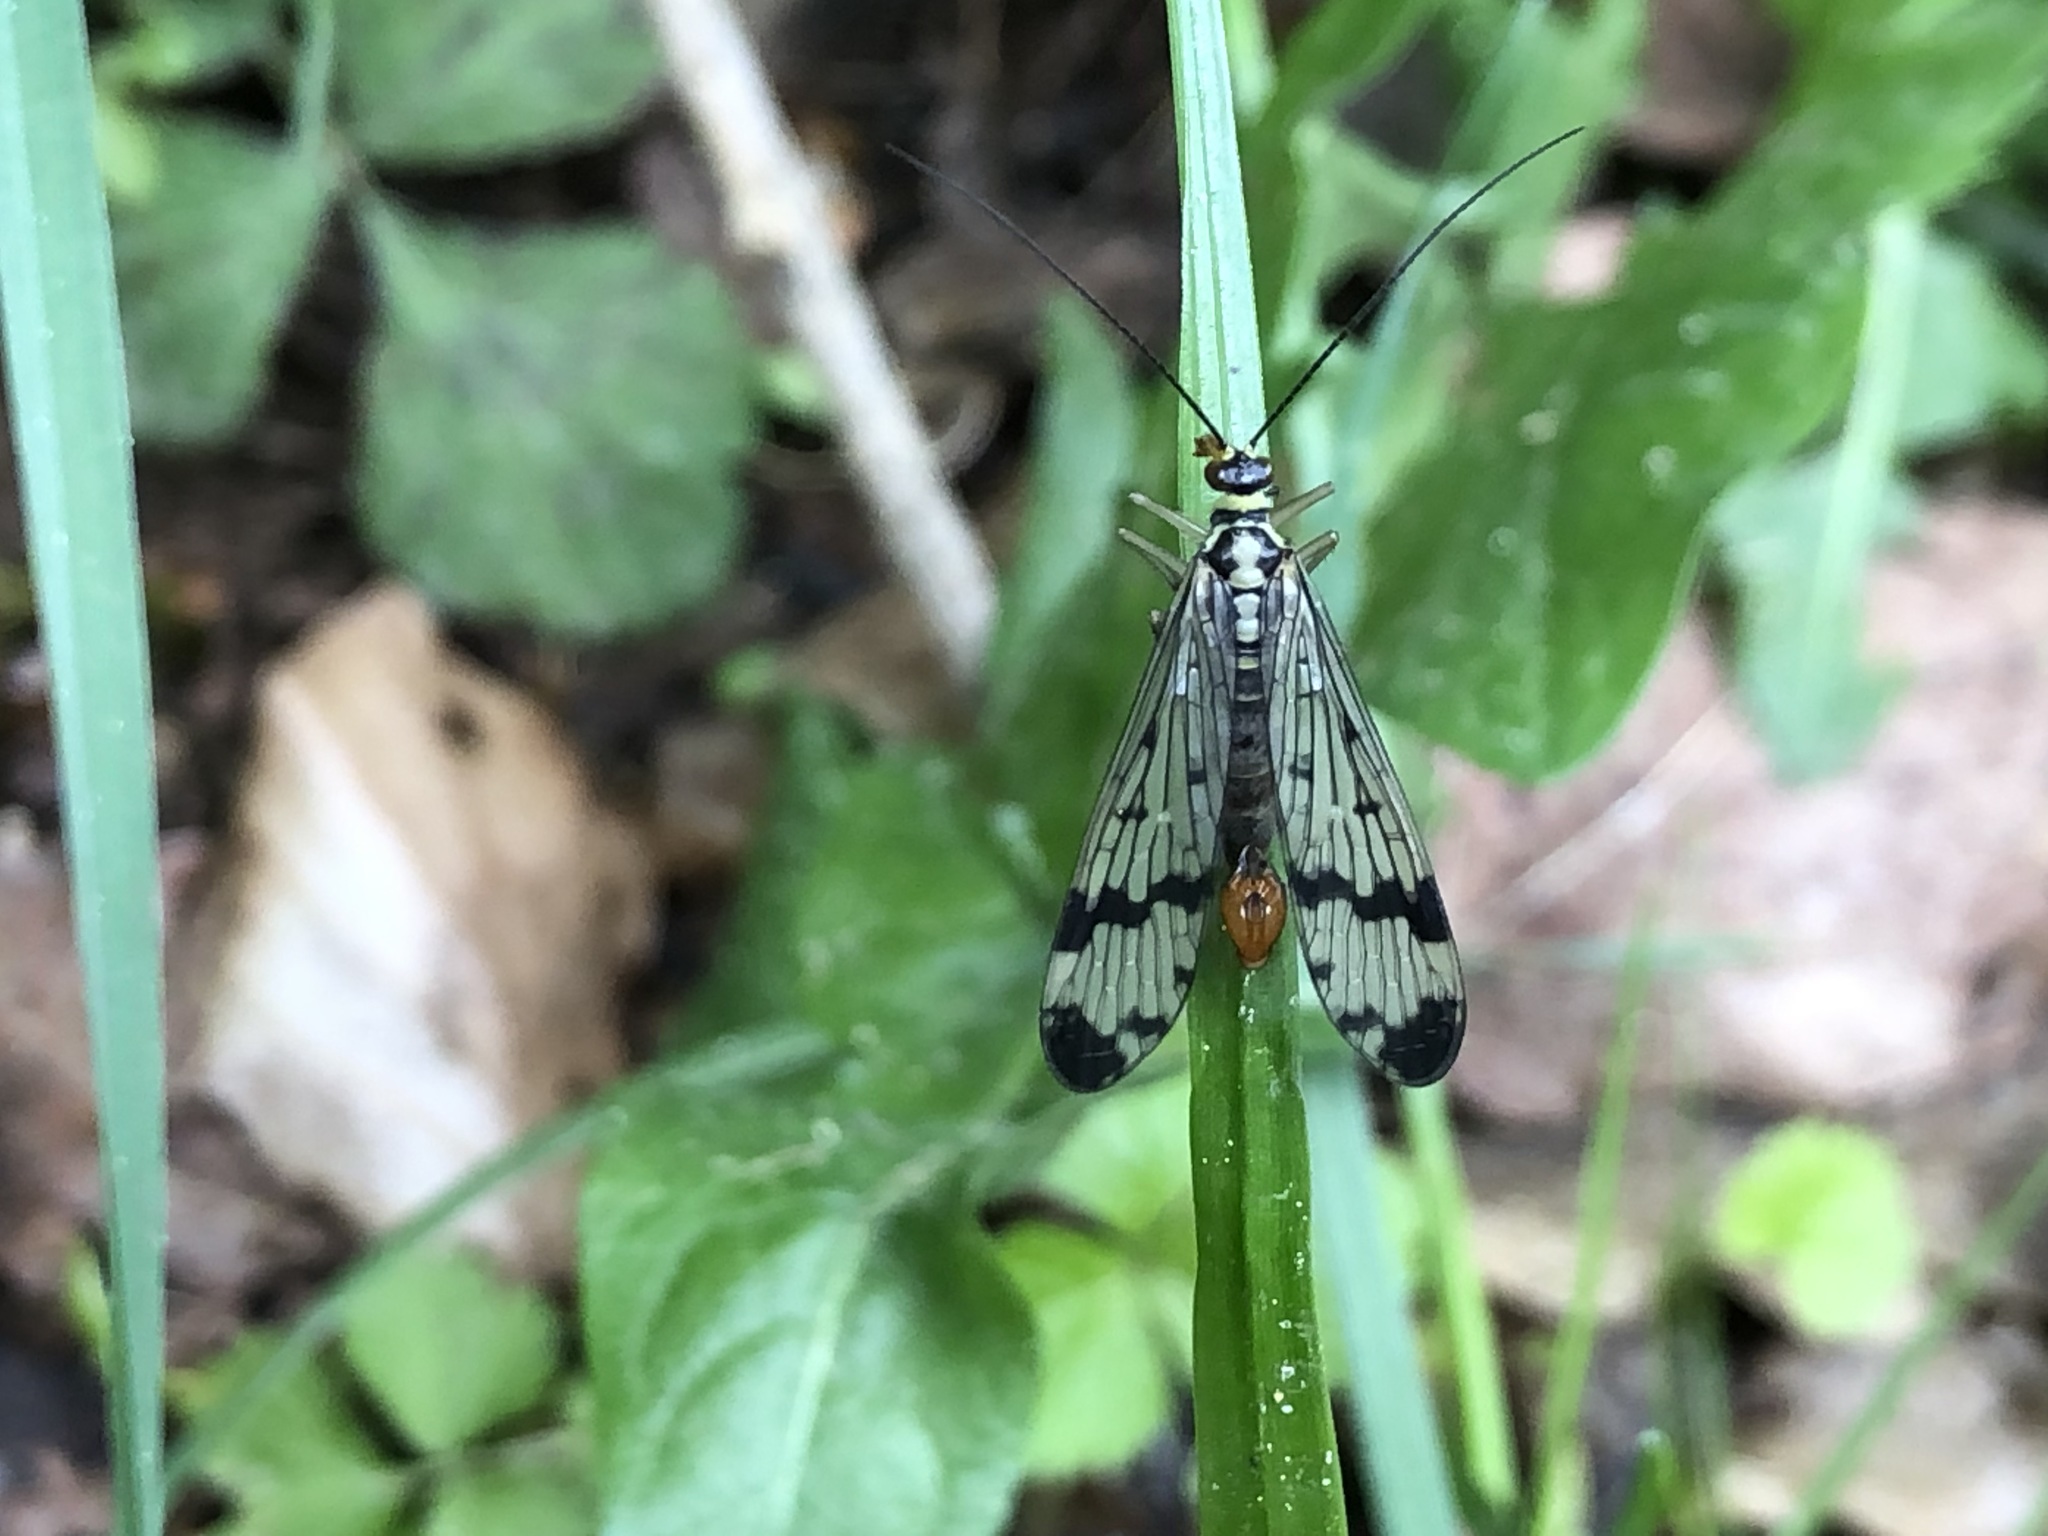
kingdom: Animalia
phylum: Arthropoda
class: Insecta
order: Mecoptera
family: Panorpidae
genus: Panorpa
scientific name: Panorpa communis
